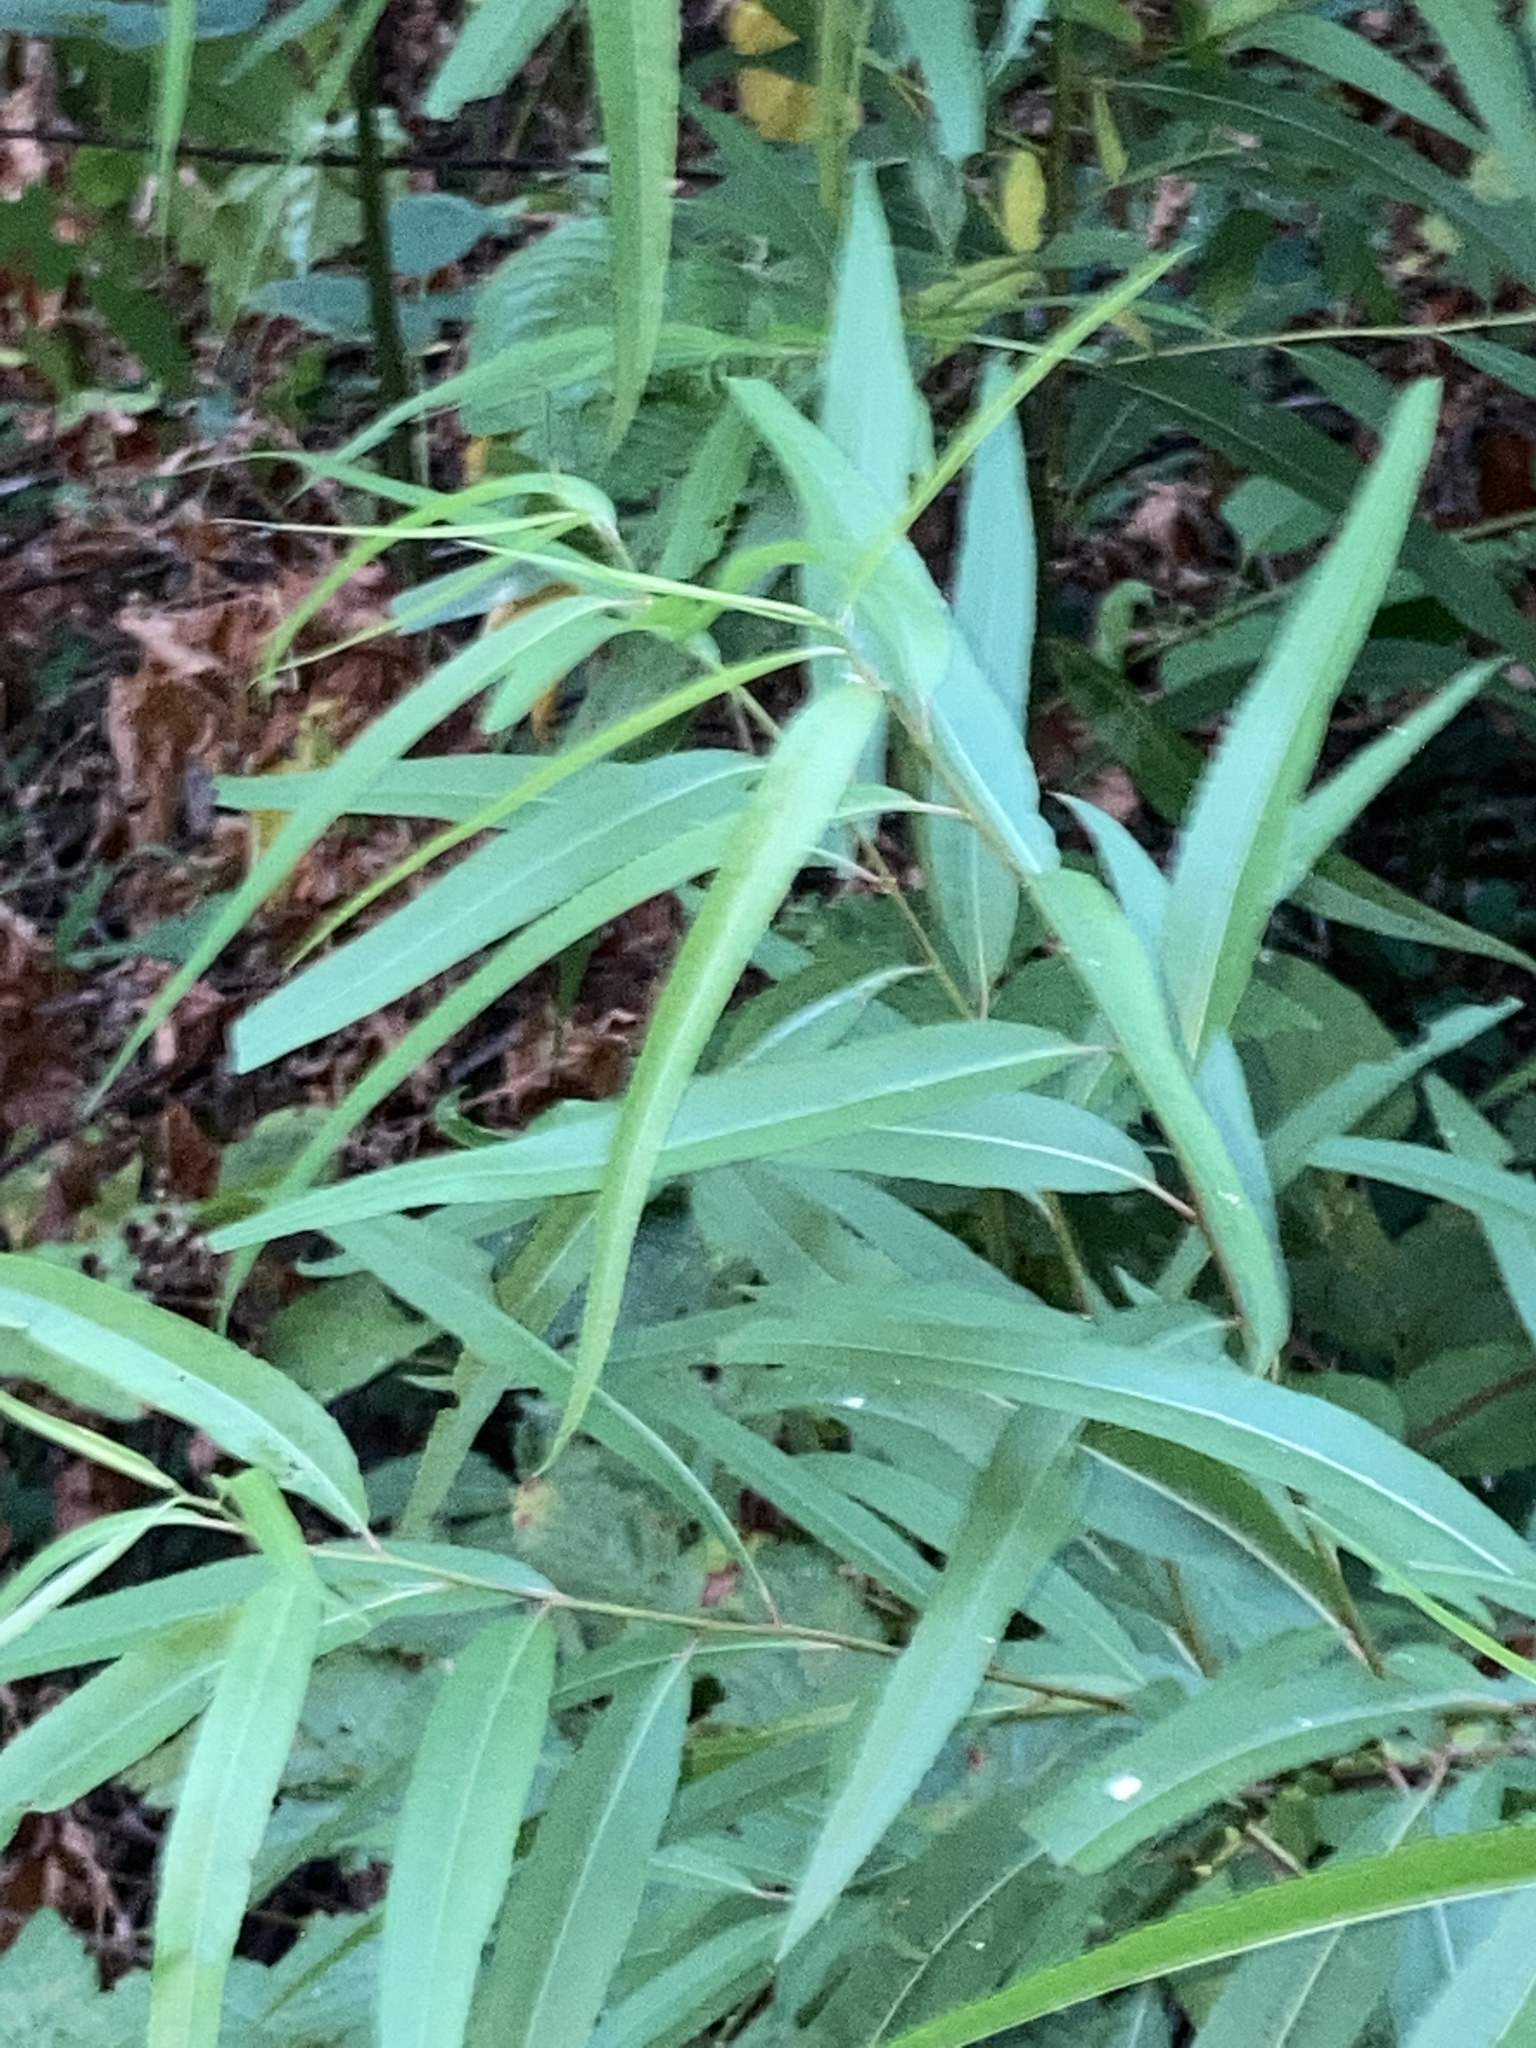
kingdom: Plantae
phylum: Tracheophyta
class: Magnoliopsida
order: Malpighiales
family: Salicaceae
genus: Salix
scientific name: Salix nigra
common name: Black willow
